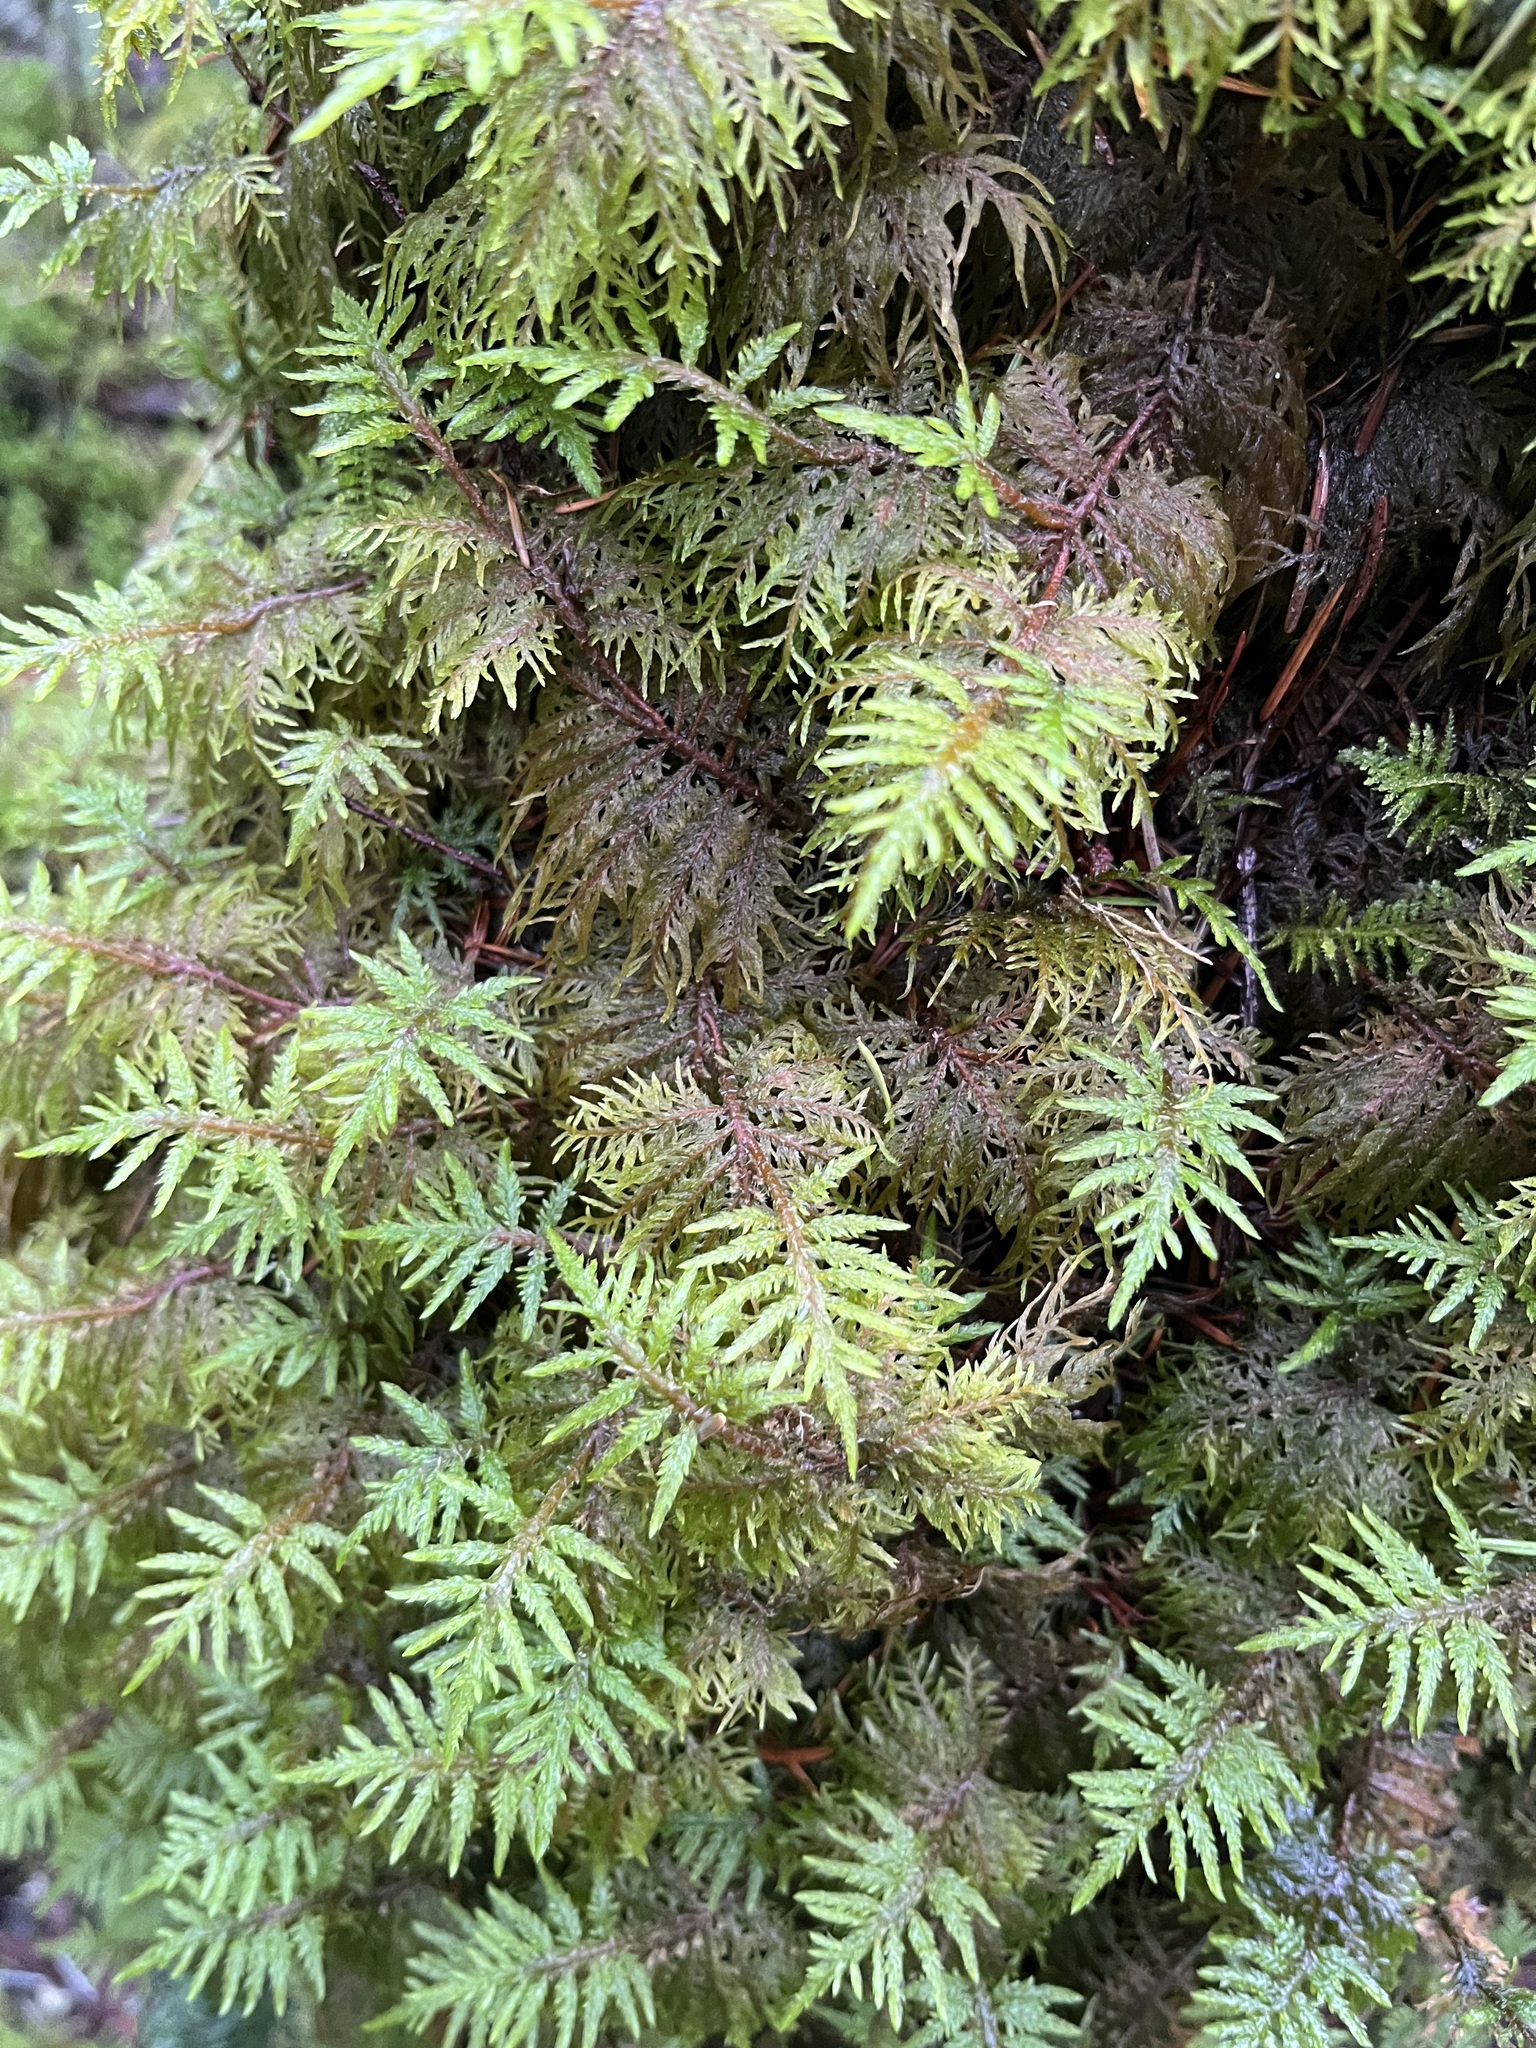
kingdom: Plantae
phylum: Bryophyta
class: Bryopsida
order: Hypnales
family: Hylocomiaceae
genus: Hylocomium
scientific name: Hylocomium splendens
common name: Stairstep moss
